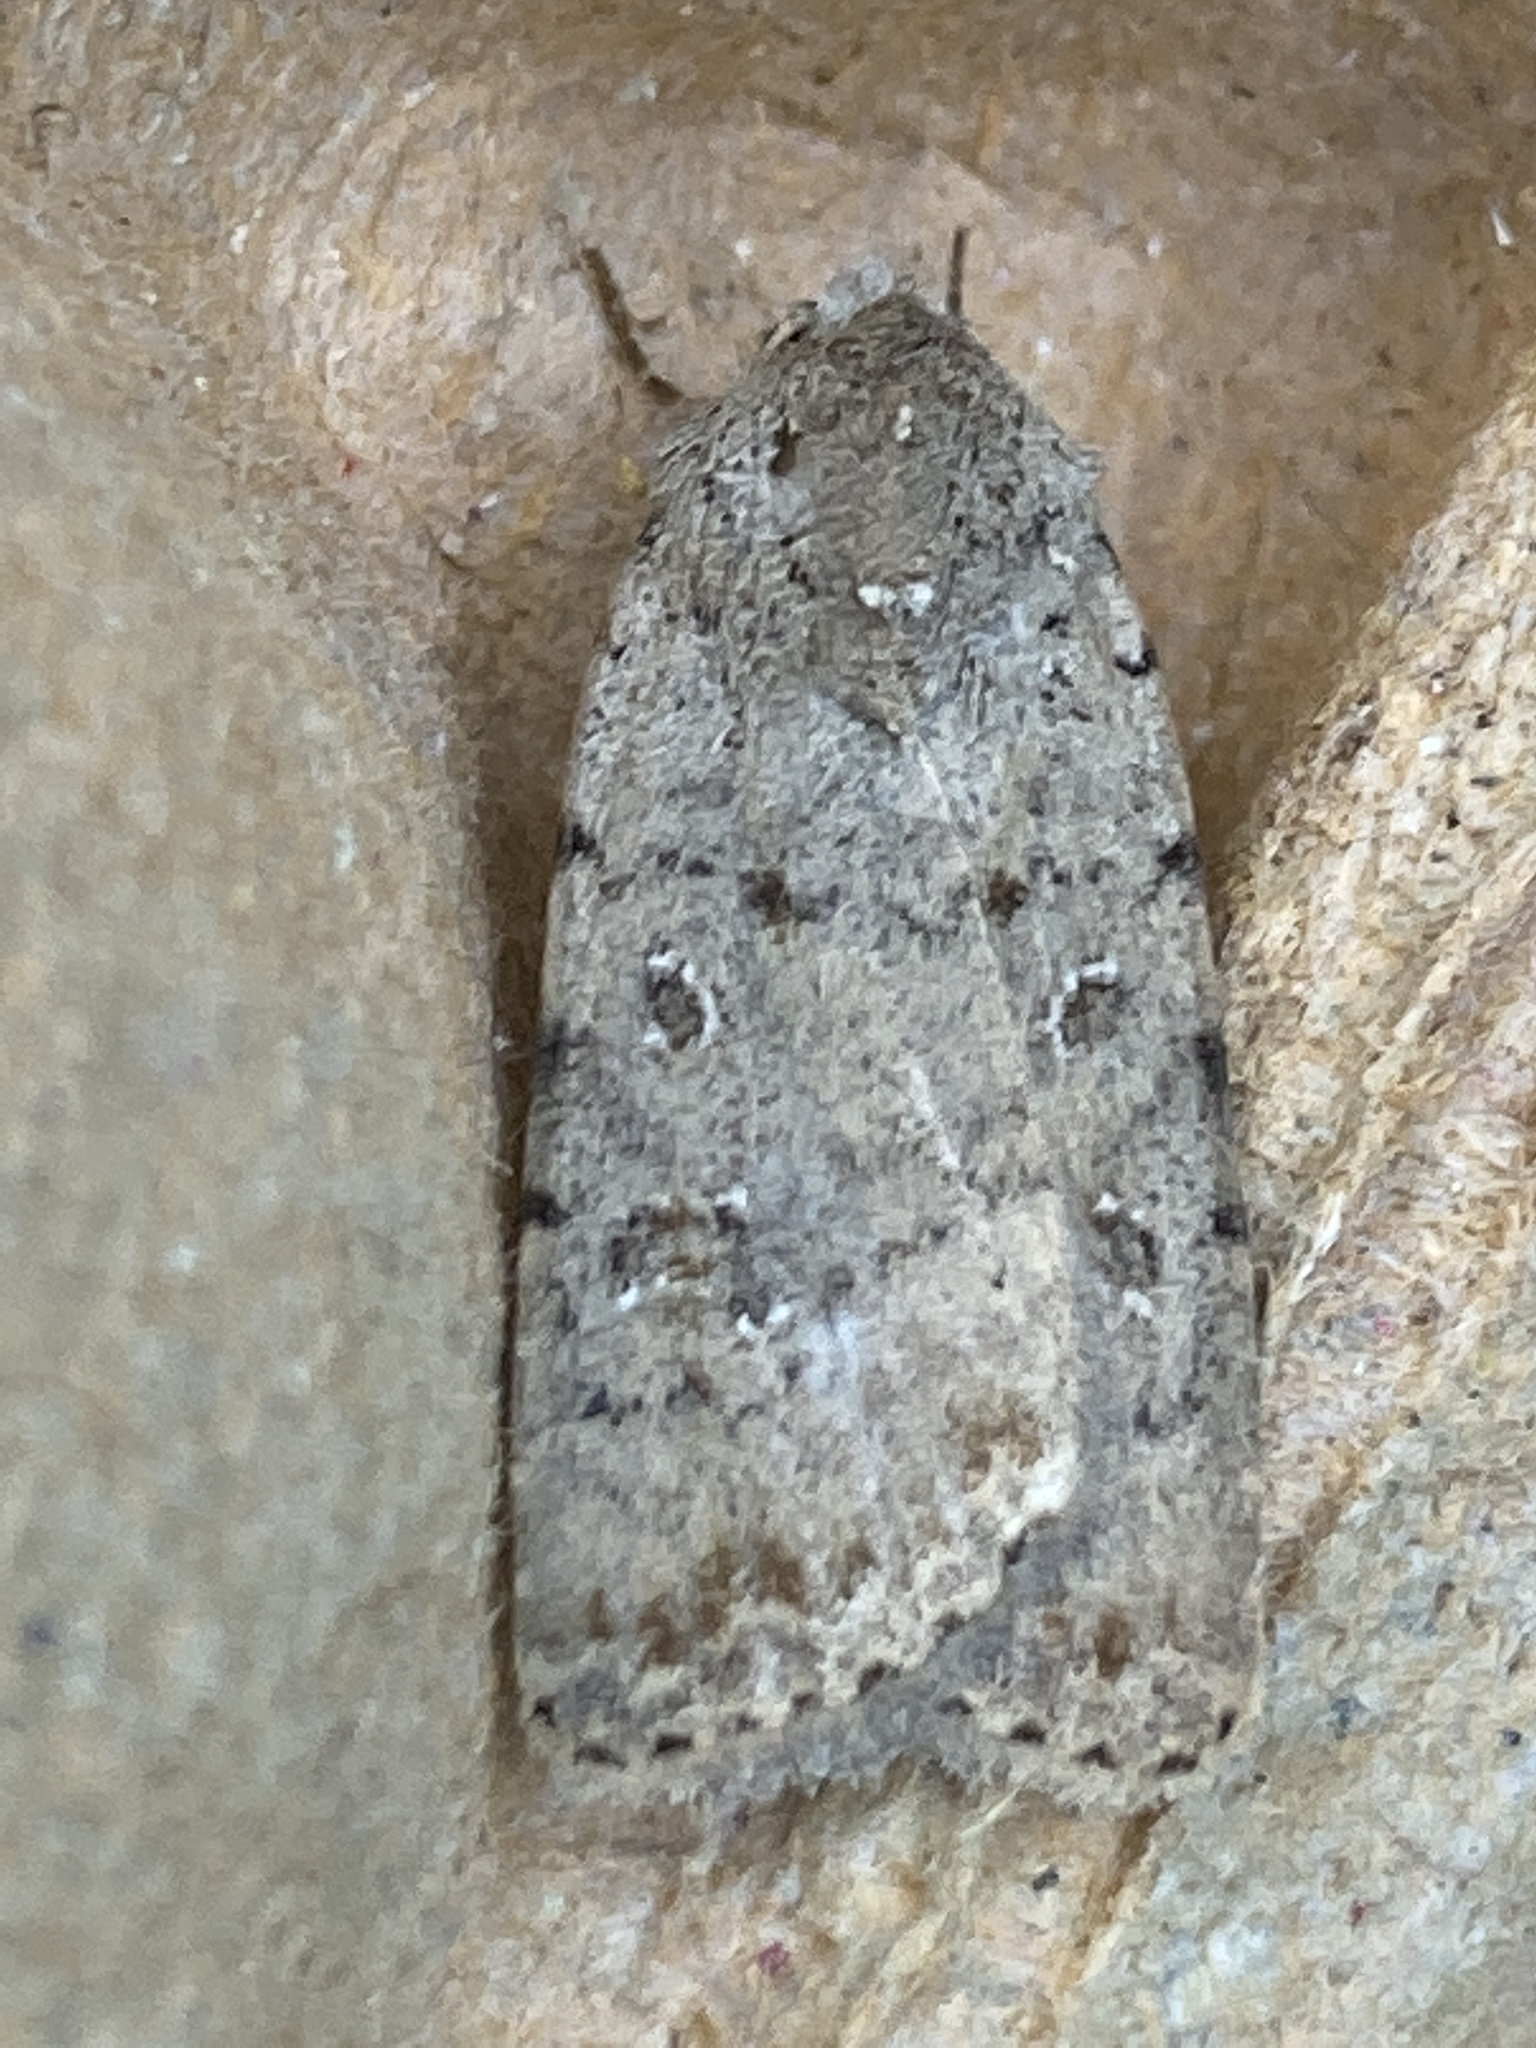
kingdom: Animalia
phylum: Arthropoda
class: Insecta
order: Lepidoptera
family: Noctuidae
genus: Caradrina
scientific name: Caradrina clavipalpis
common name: Pale mottled willow
